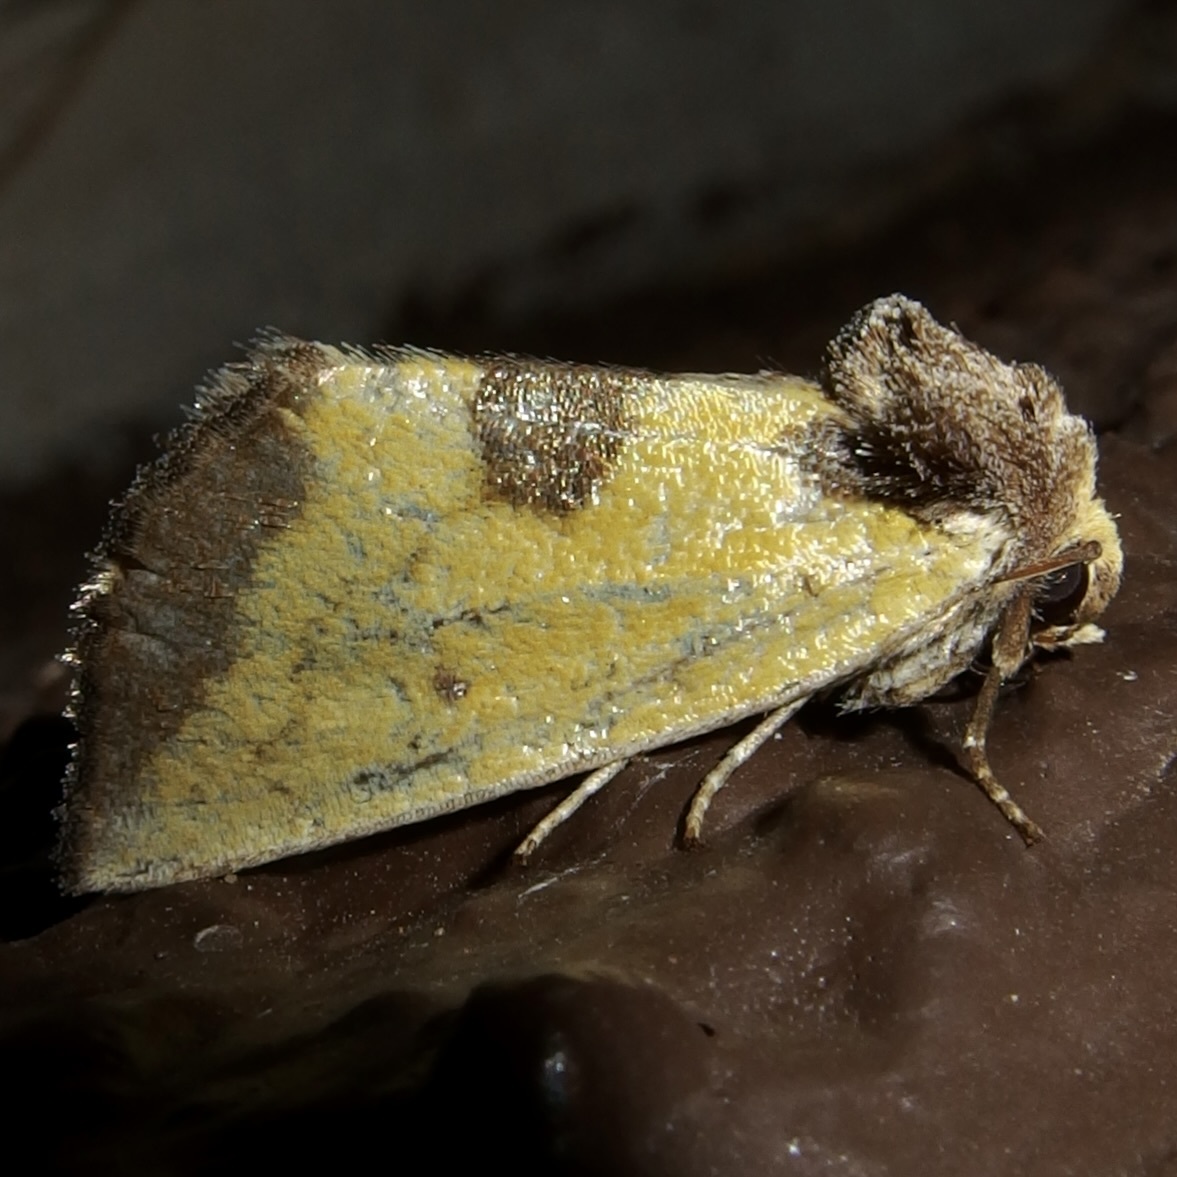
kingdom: Animalia
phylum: Arthropoda
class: Insecta
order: Lepidoptera
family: Noctuidae
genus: Stiria
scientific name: Stiria sulphurea
